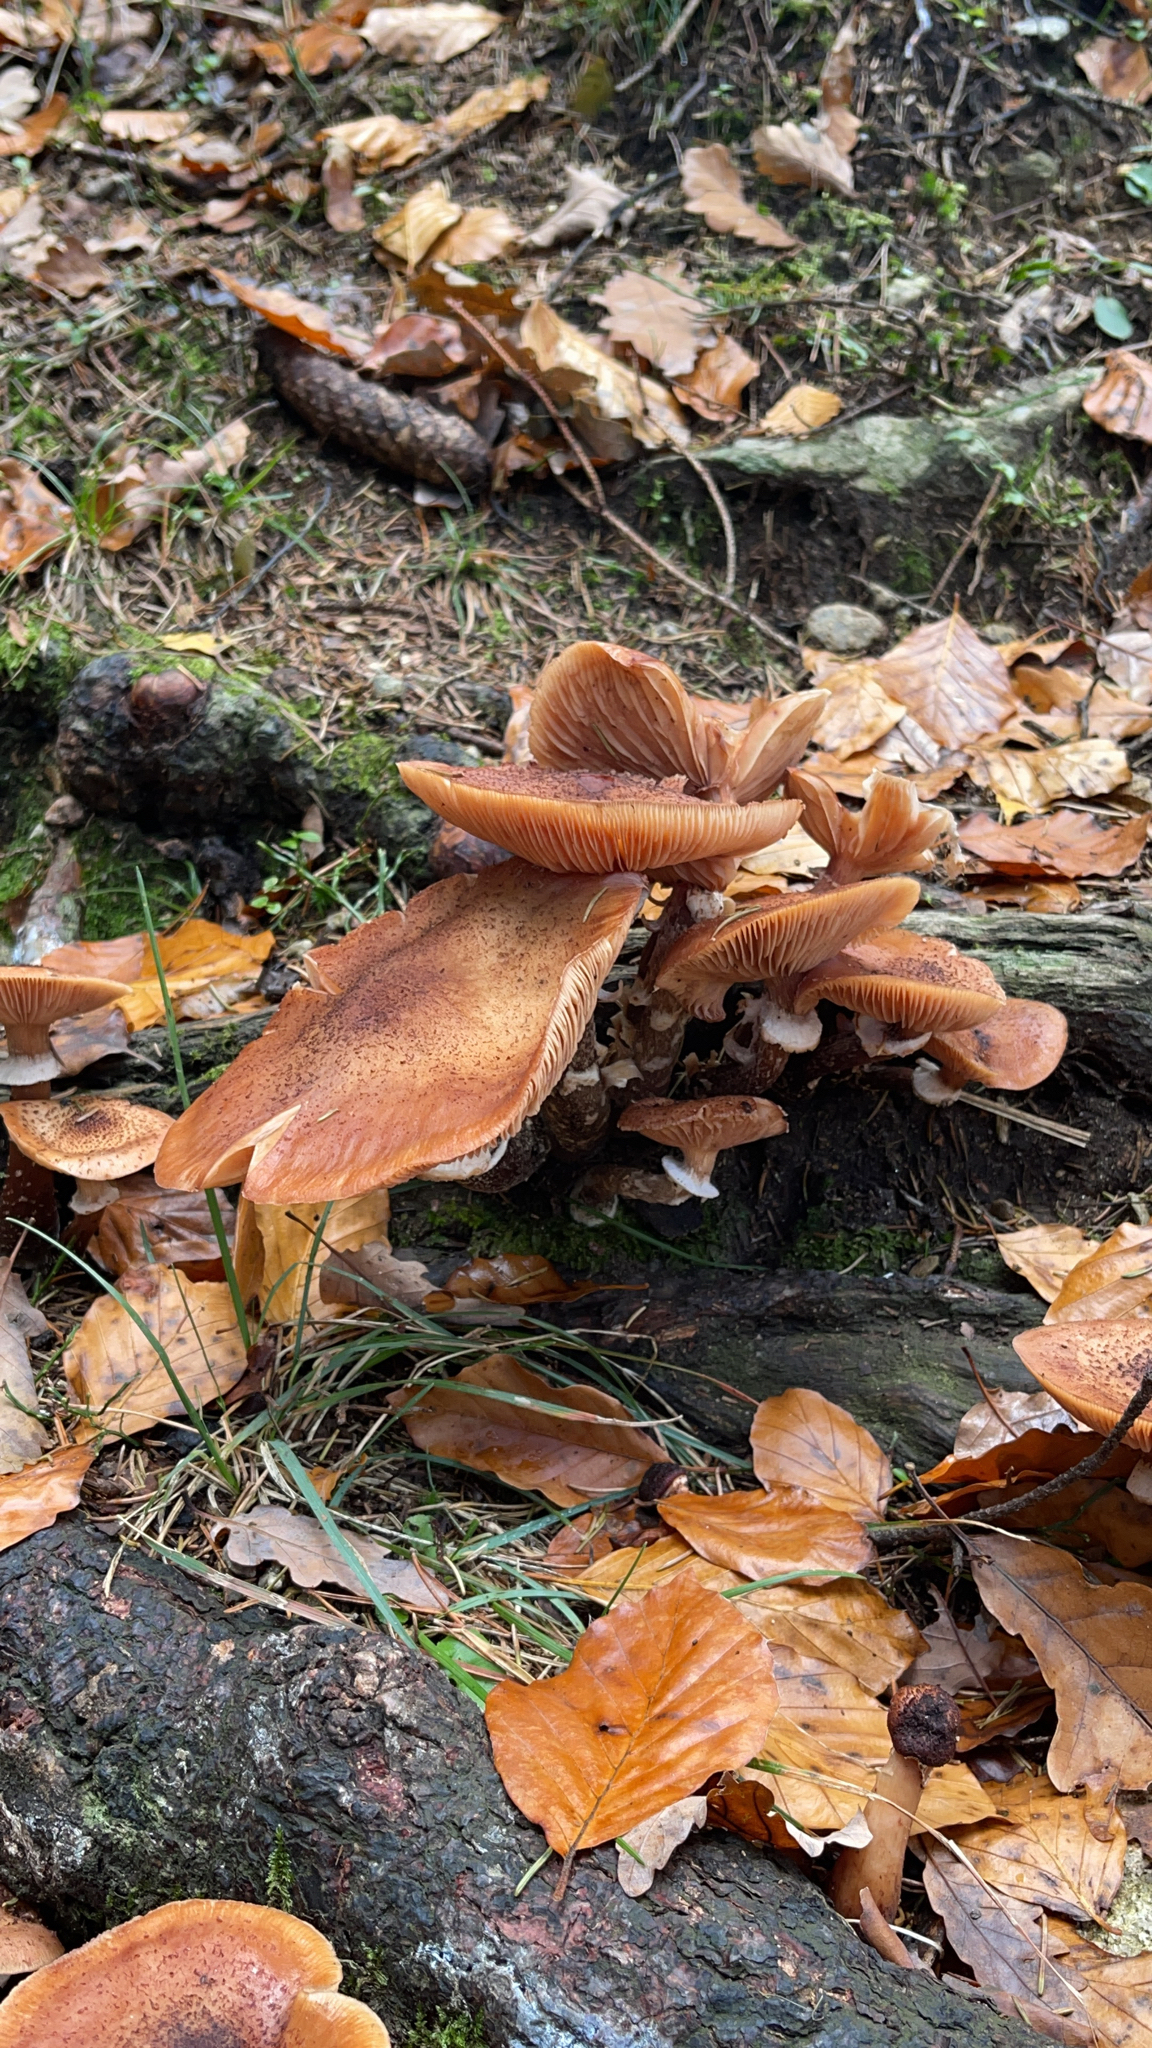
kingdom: Fungi
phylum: Basidiomycota
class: Agaricomycetes
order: Agaricales
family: Physalacriaceae
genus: Armillaria
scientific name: Armillaria mellea
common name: Honey fungus
